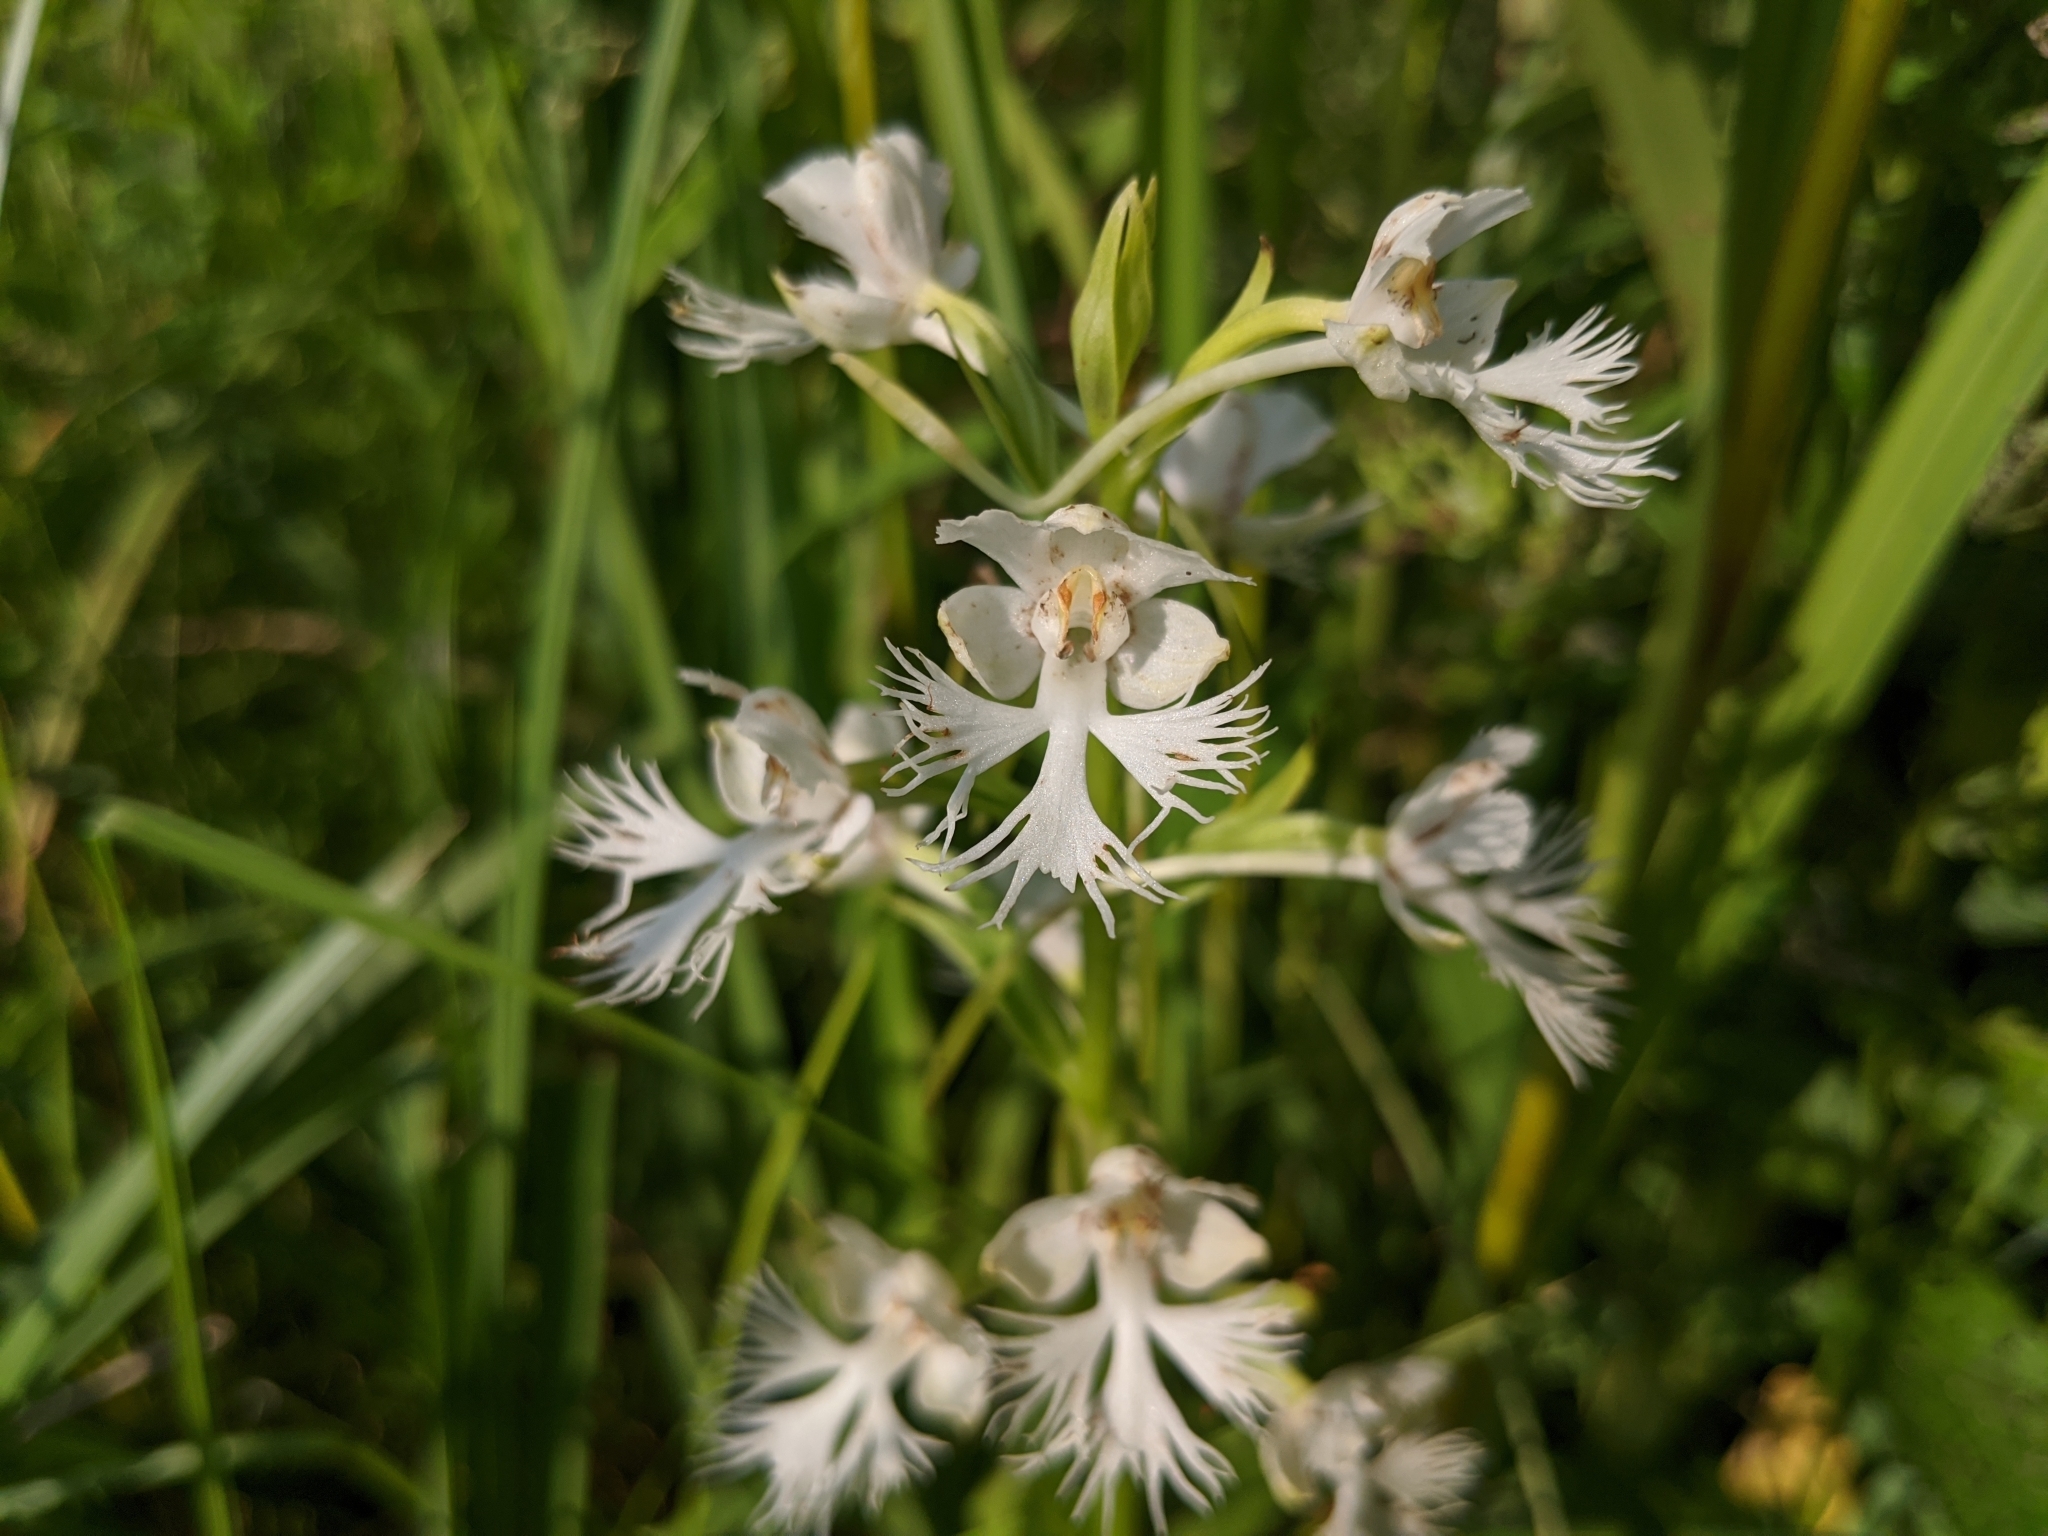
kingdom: Plantae
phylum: Tracheophyta
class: Liliopsida
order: Asparagales
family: Orchidaceae
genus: Platanthera
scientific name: Platanthera leucophaea
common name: Eastern prairie white-fringed orchid
